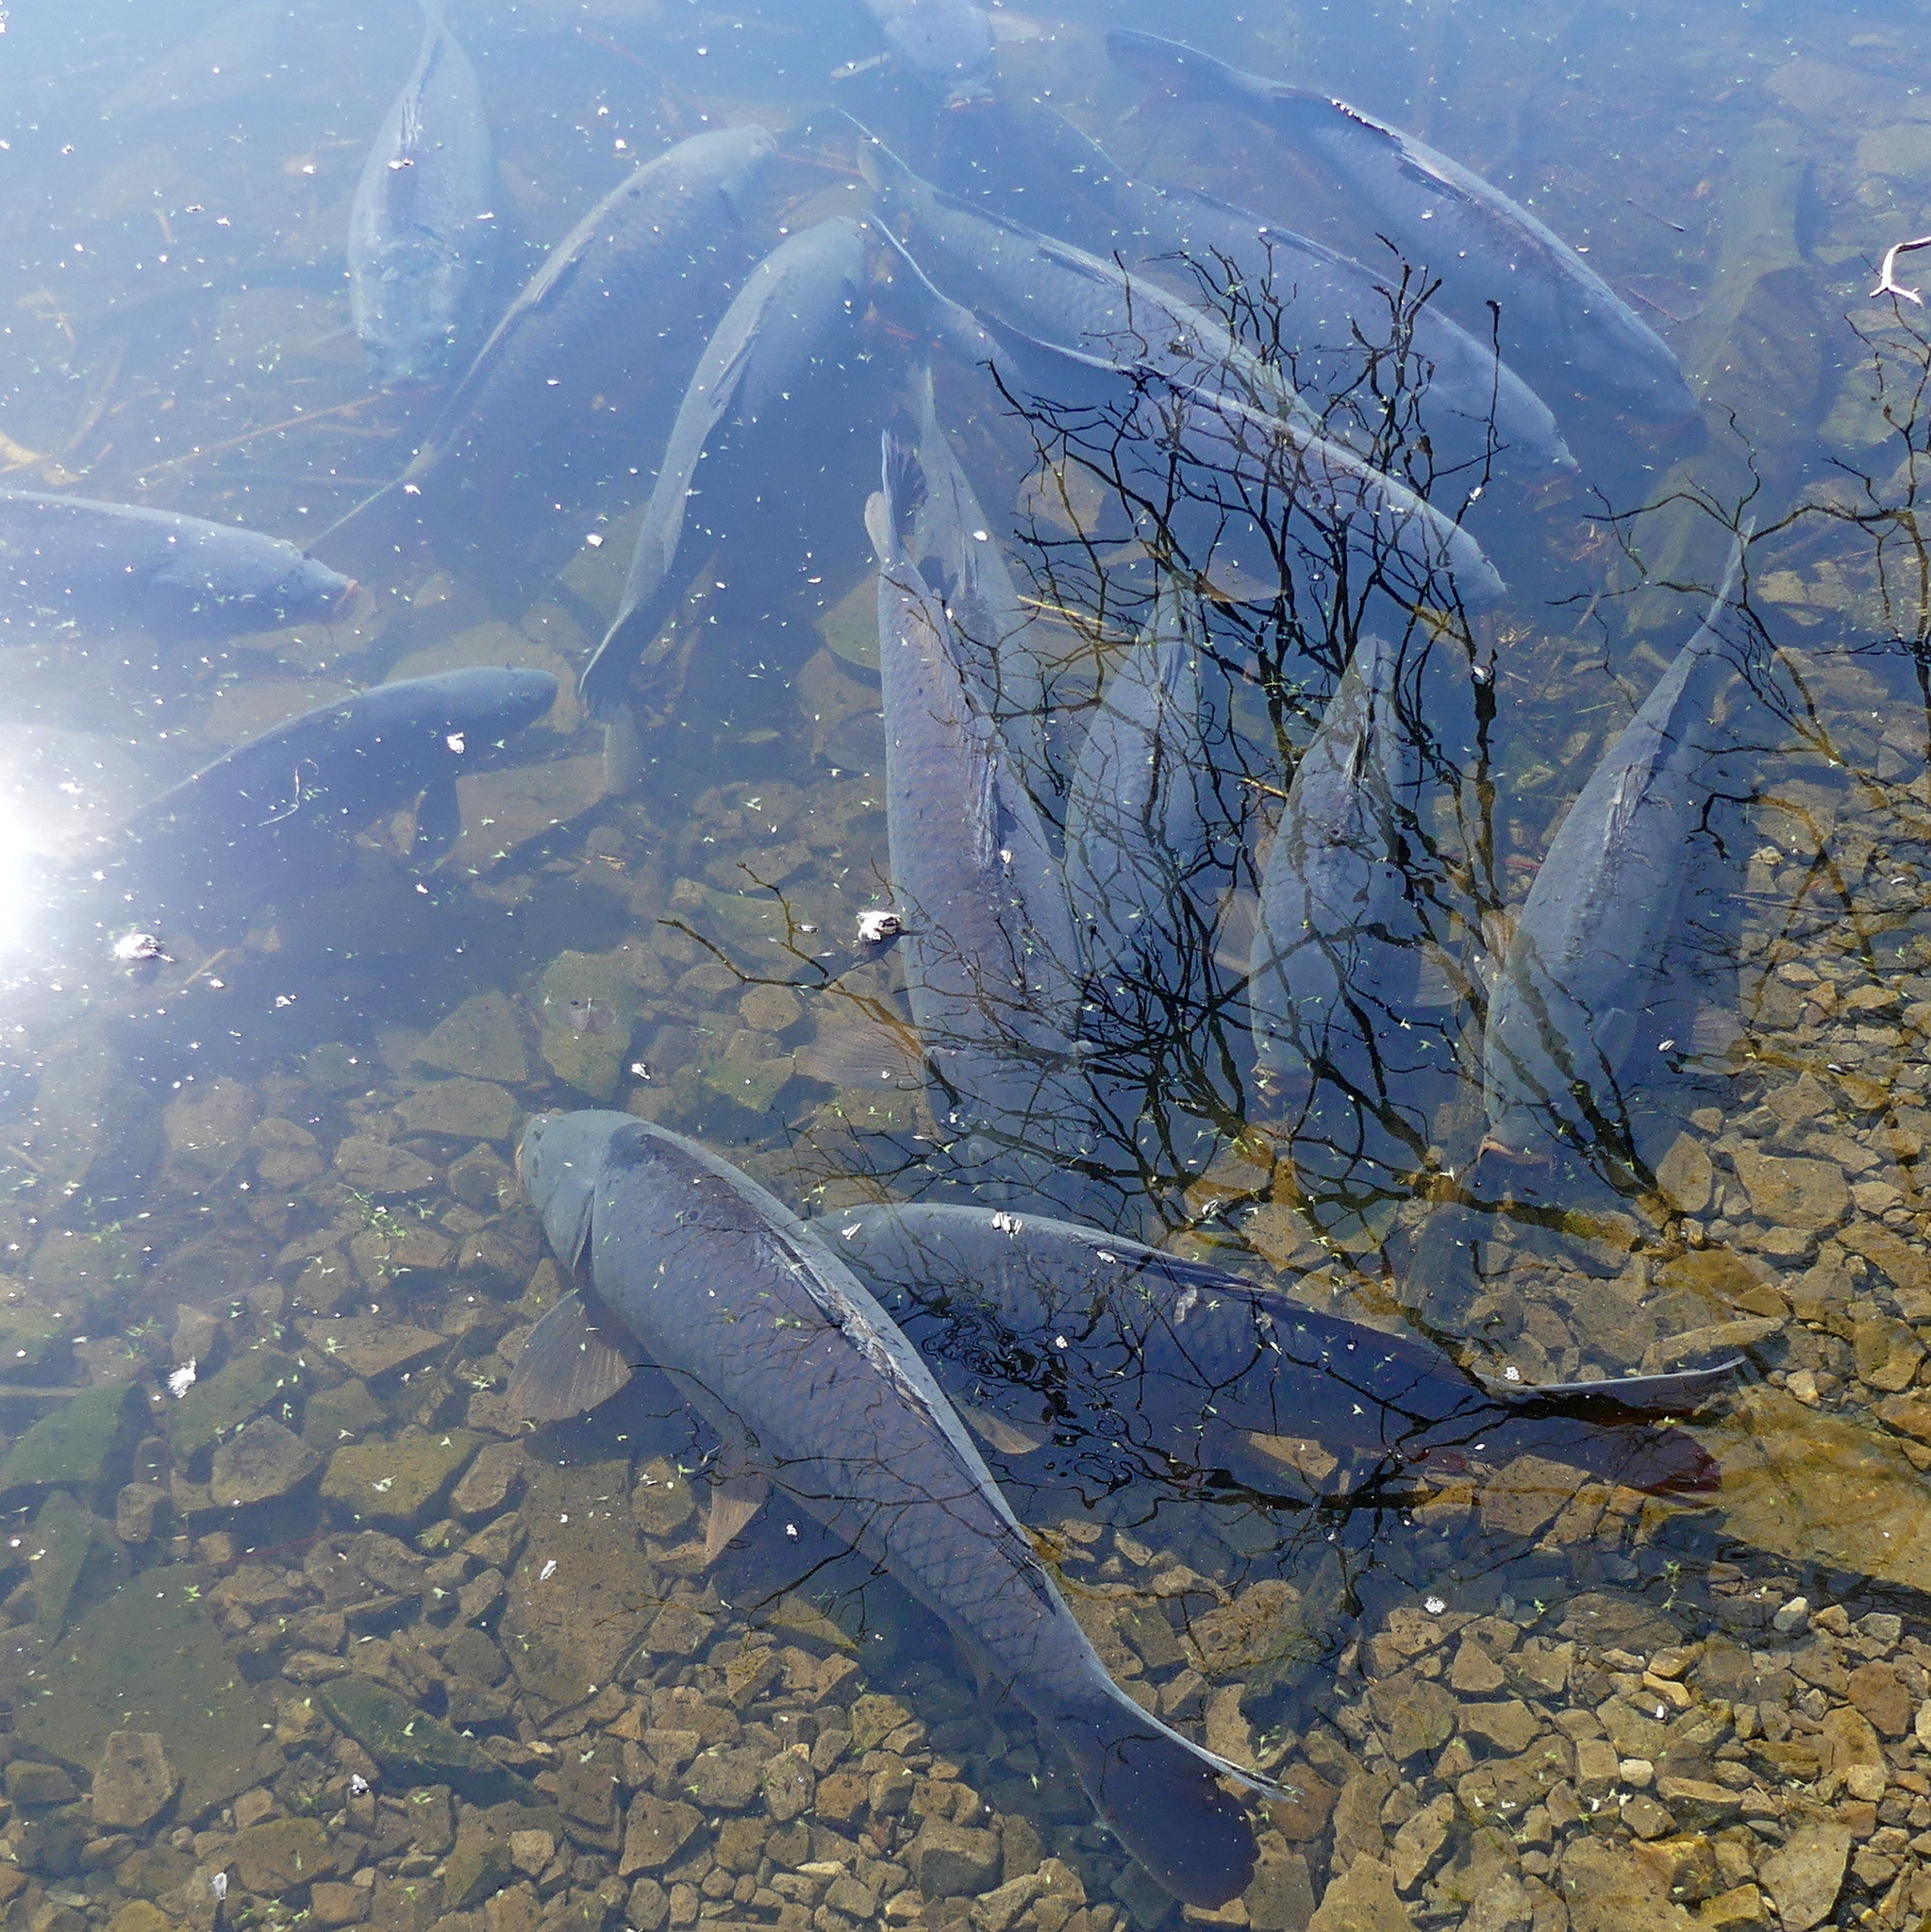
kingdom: Animalia
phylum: Chordata
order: Cypriniformes
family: Cyprinidae
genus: Cyprinus
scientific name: Cyprinus carpio
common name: Common carp
